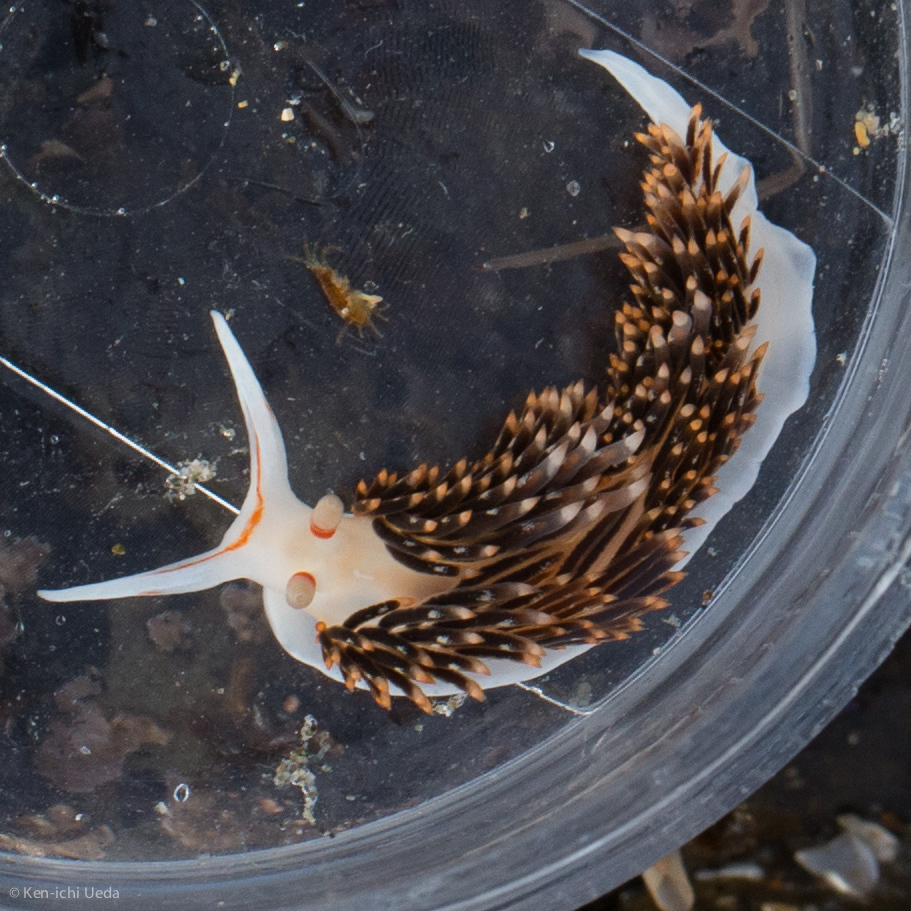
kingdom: Animalia
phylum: Mollusca
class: Gastropoda
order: Nudibranchia
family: Facelinidae
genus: Phidiana
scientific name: Phidiana hiltoni
